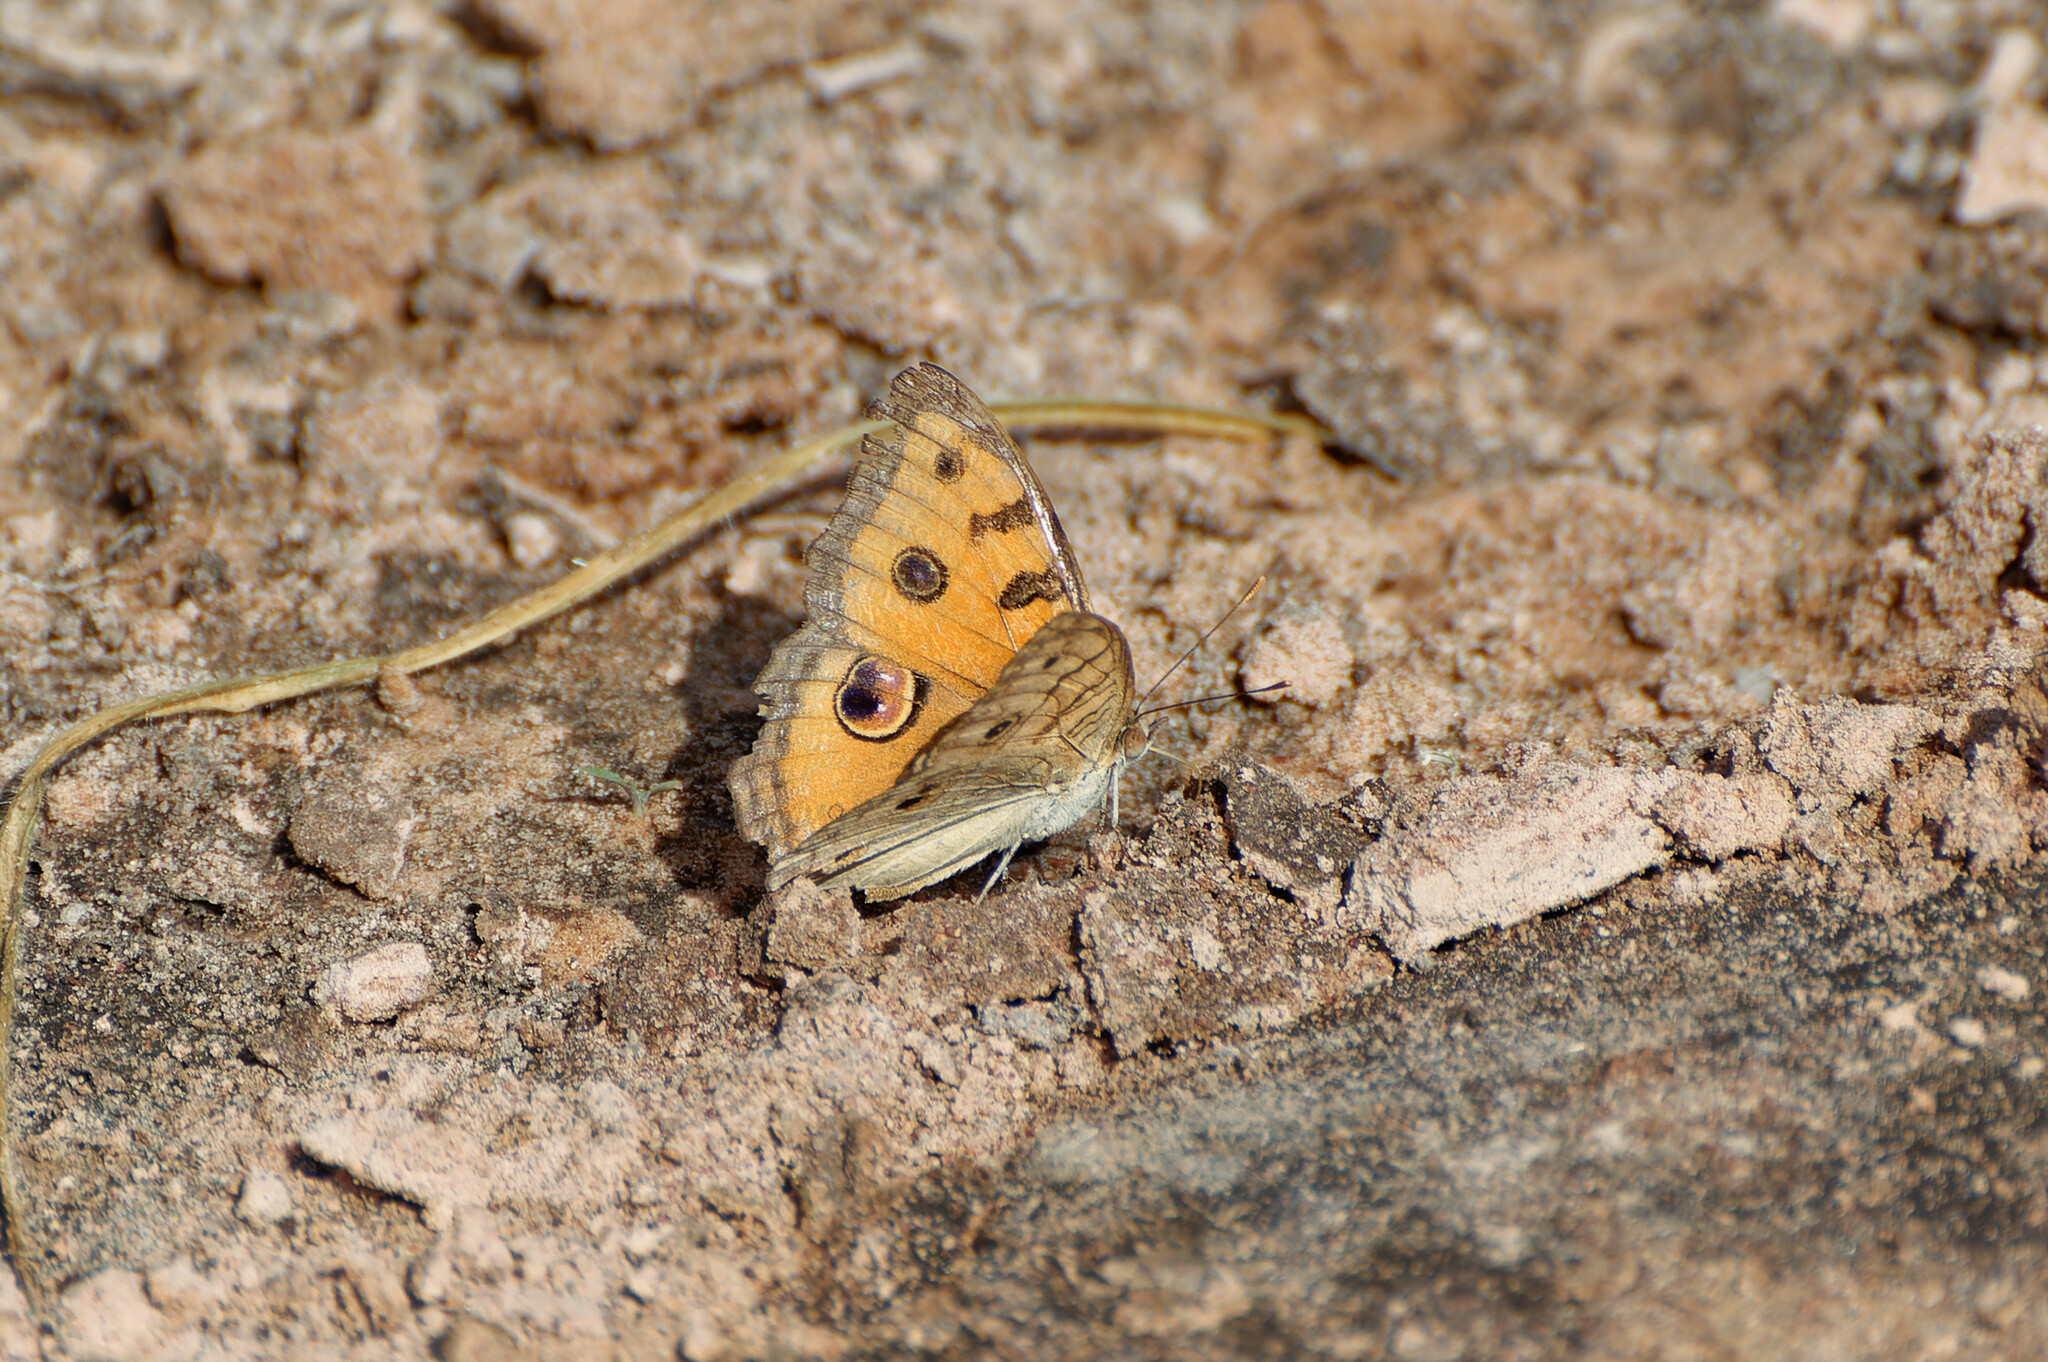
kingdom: Animalia
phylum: Arthropoda
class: Insecta
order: Lepidoptera
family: Nymphalidae
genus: Junonia
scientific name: Junonia almana
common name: Peacock pansy
